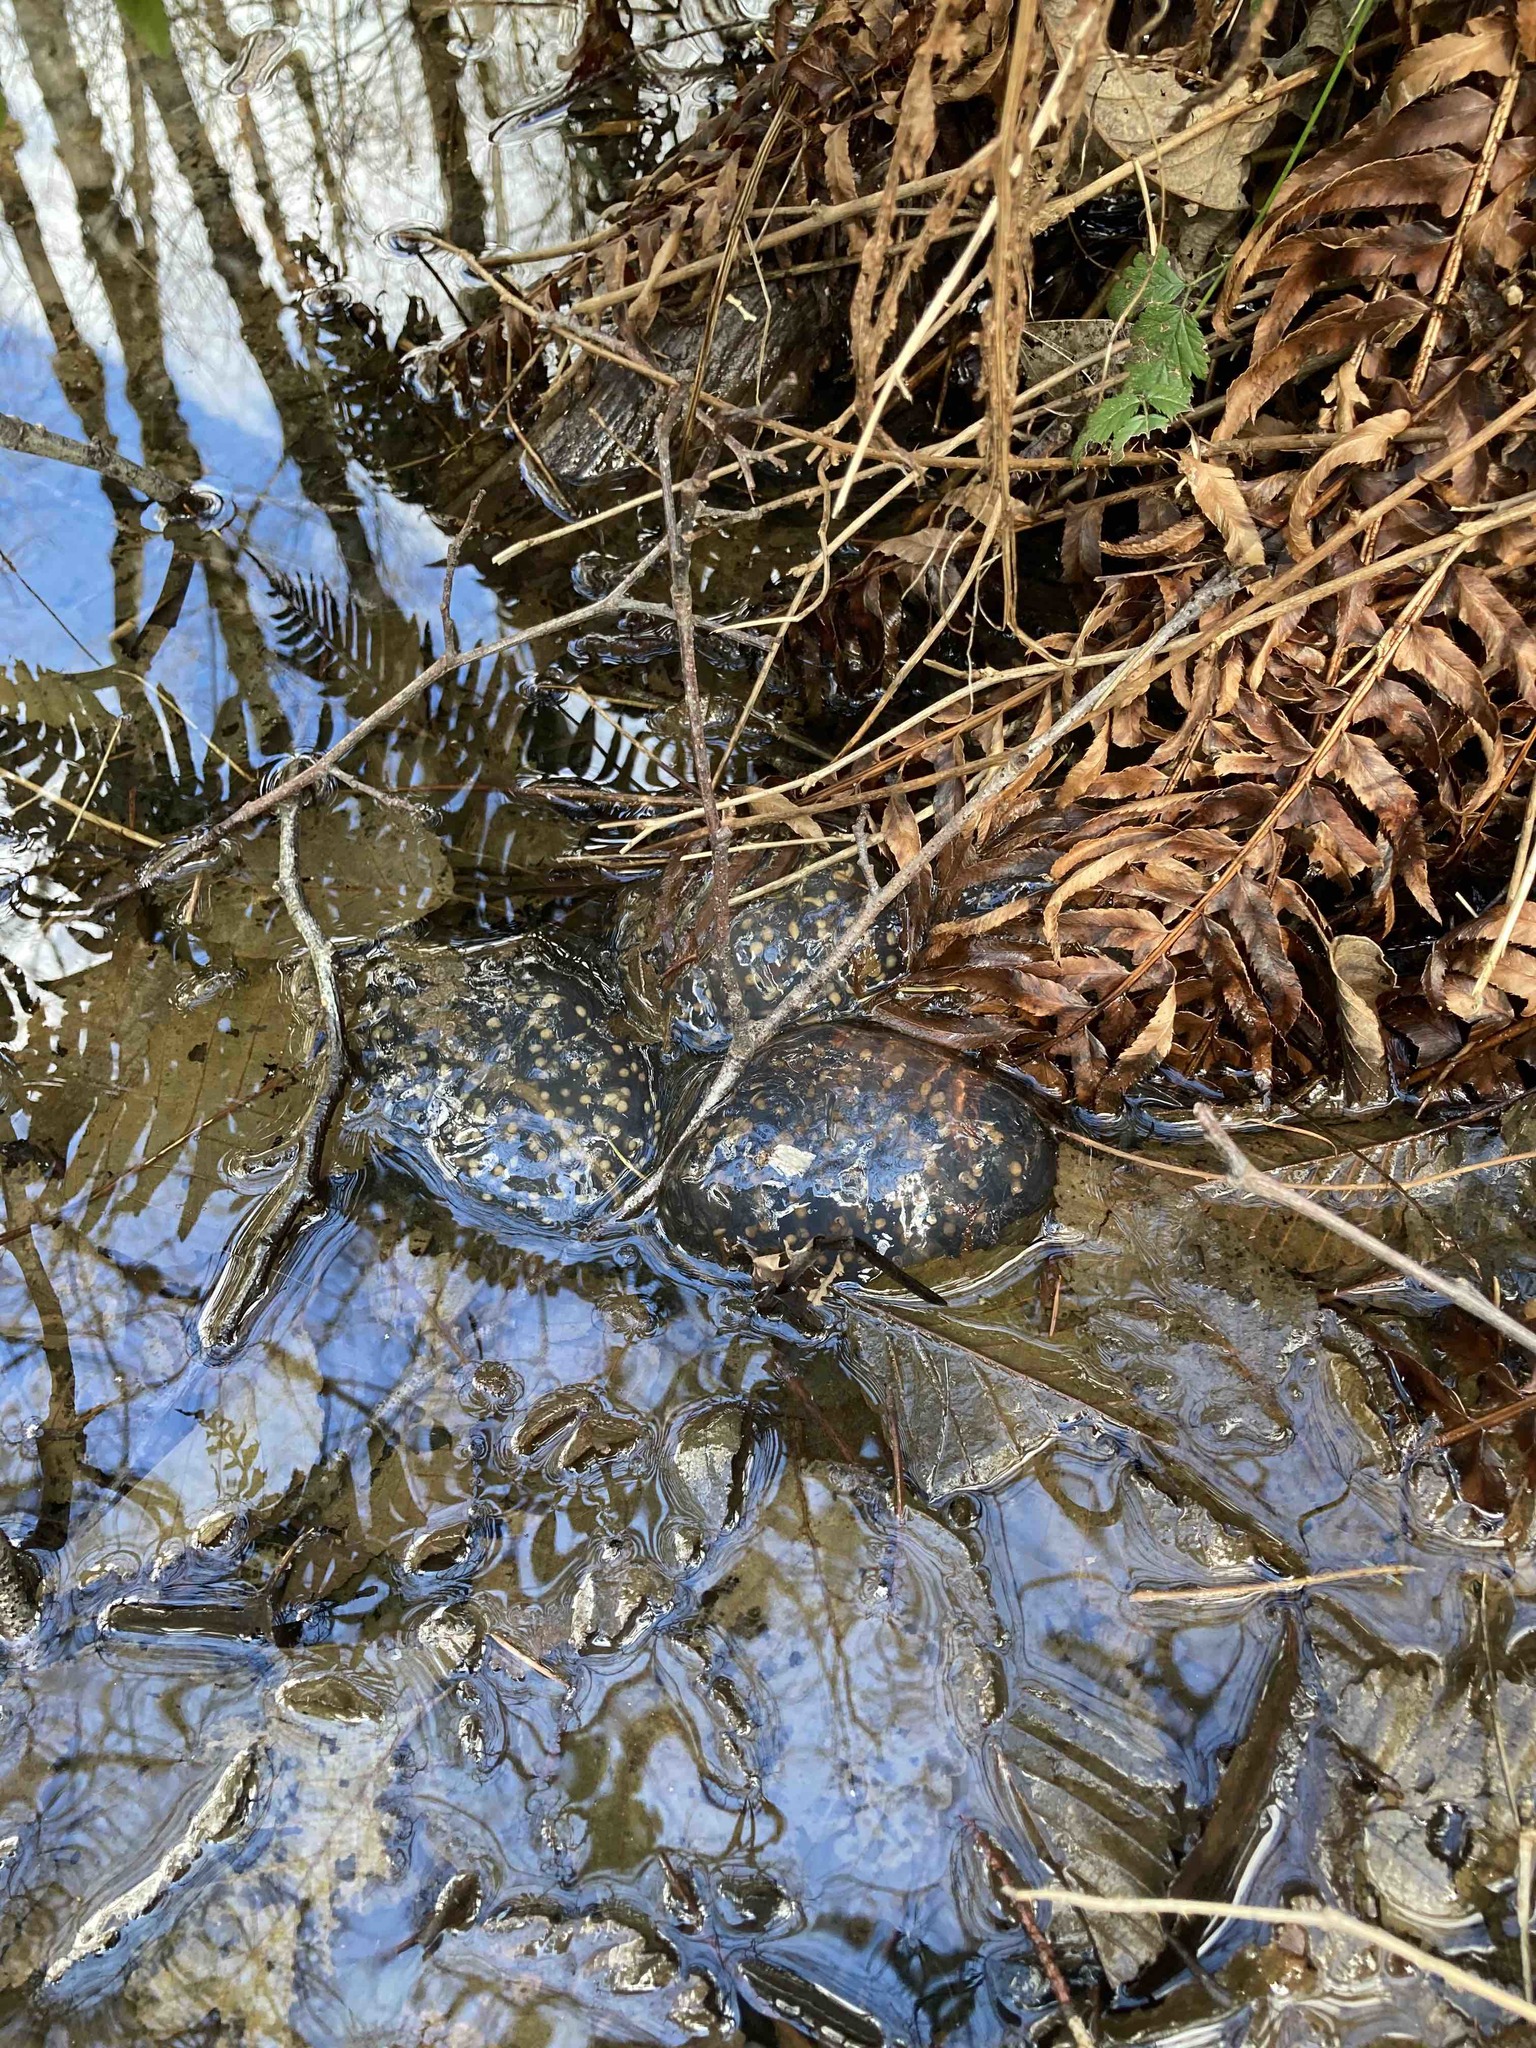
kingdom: Animalia
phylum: Chordata
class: Amphibia
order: Caudata
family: Ambystomatidae
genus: Ambystoma
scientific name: Ambystoma gracile
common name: Northwestern salamander
